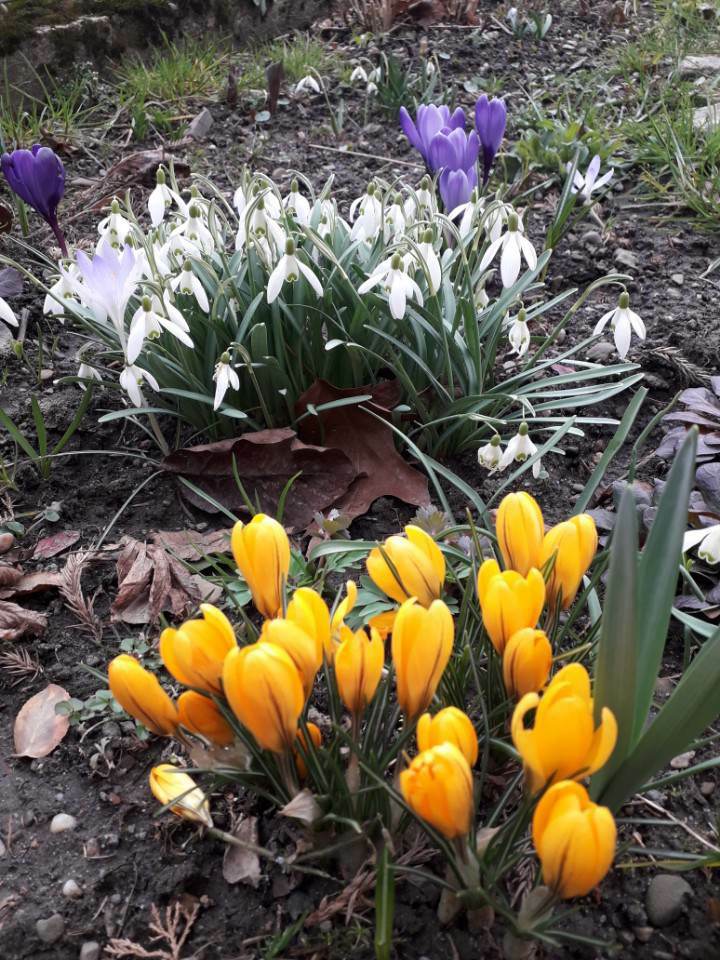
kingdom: Plantae
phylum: Tracheophyta
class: Liliopsida
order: Asparagales
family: Amaryllidaceae
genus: Galanthus
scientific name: Galanthus nivalis
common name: Snowdrop
